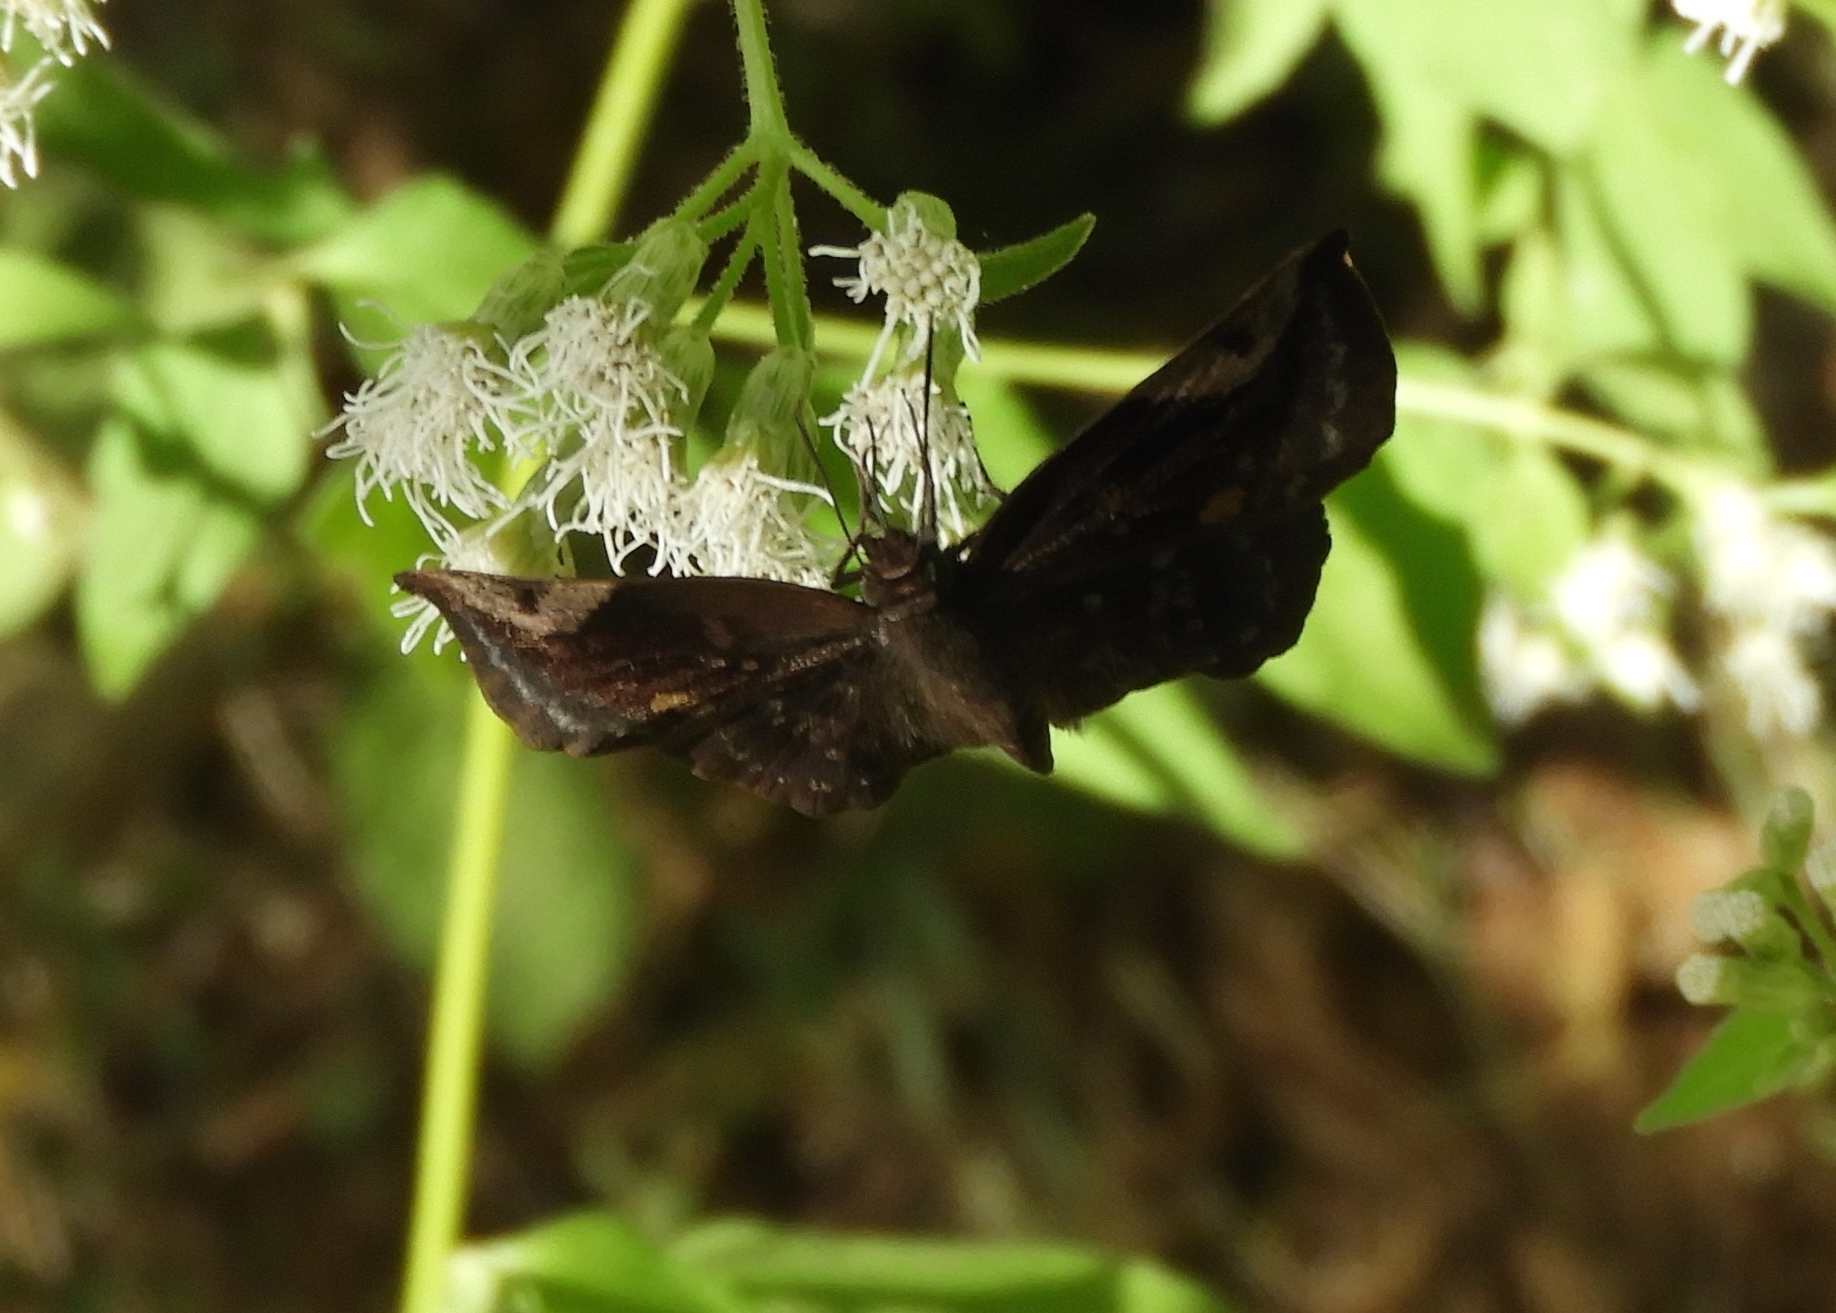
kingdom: Animalia
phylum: Arthropoda
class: Insecta
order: Lepidoptera
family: Hesperiidae
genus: Achlyodes
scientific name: Achlyodes thraso
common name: Sickle-winged skipper
